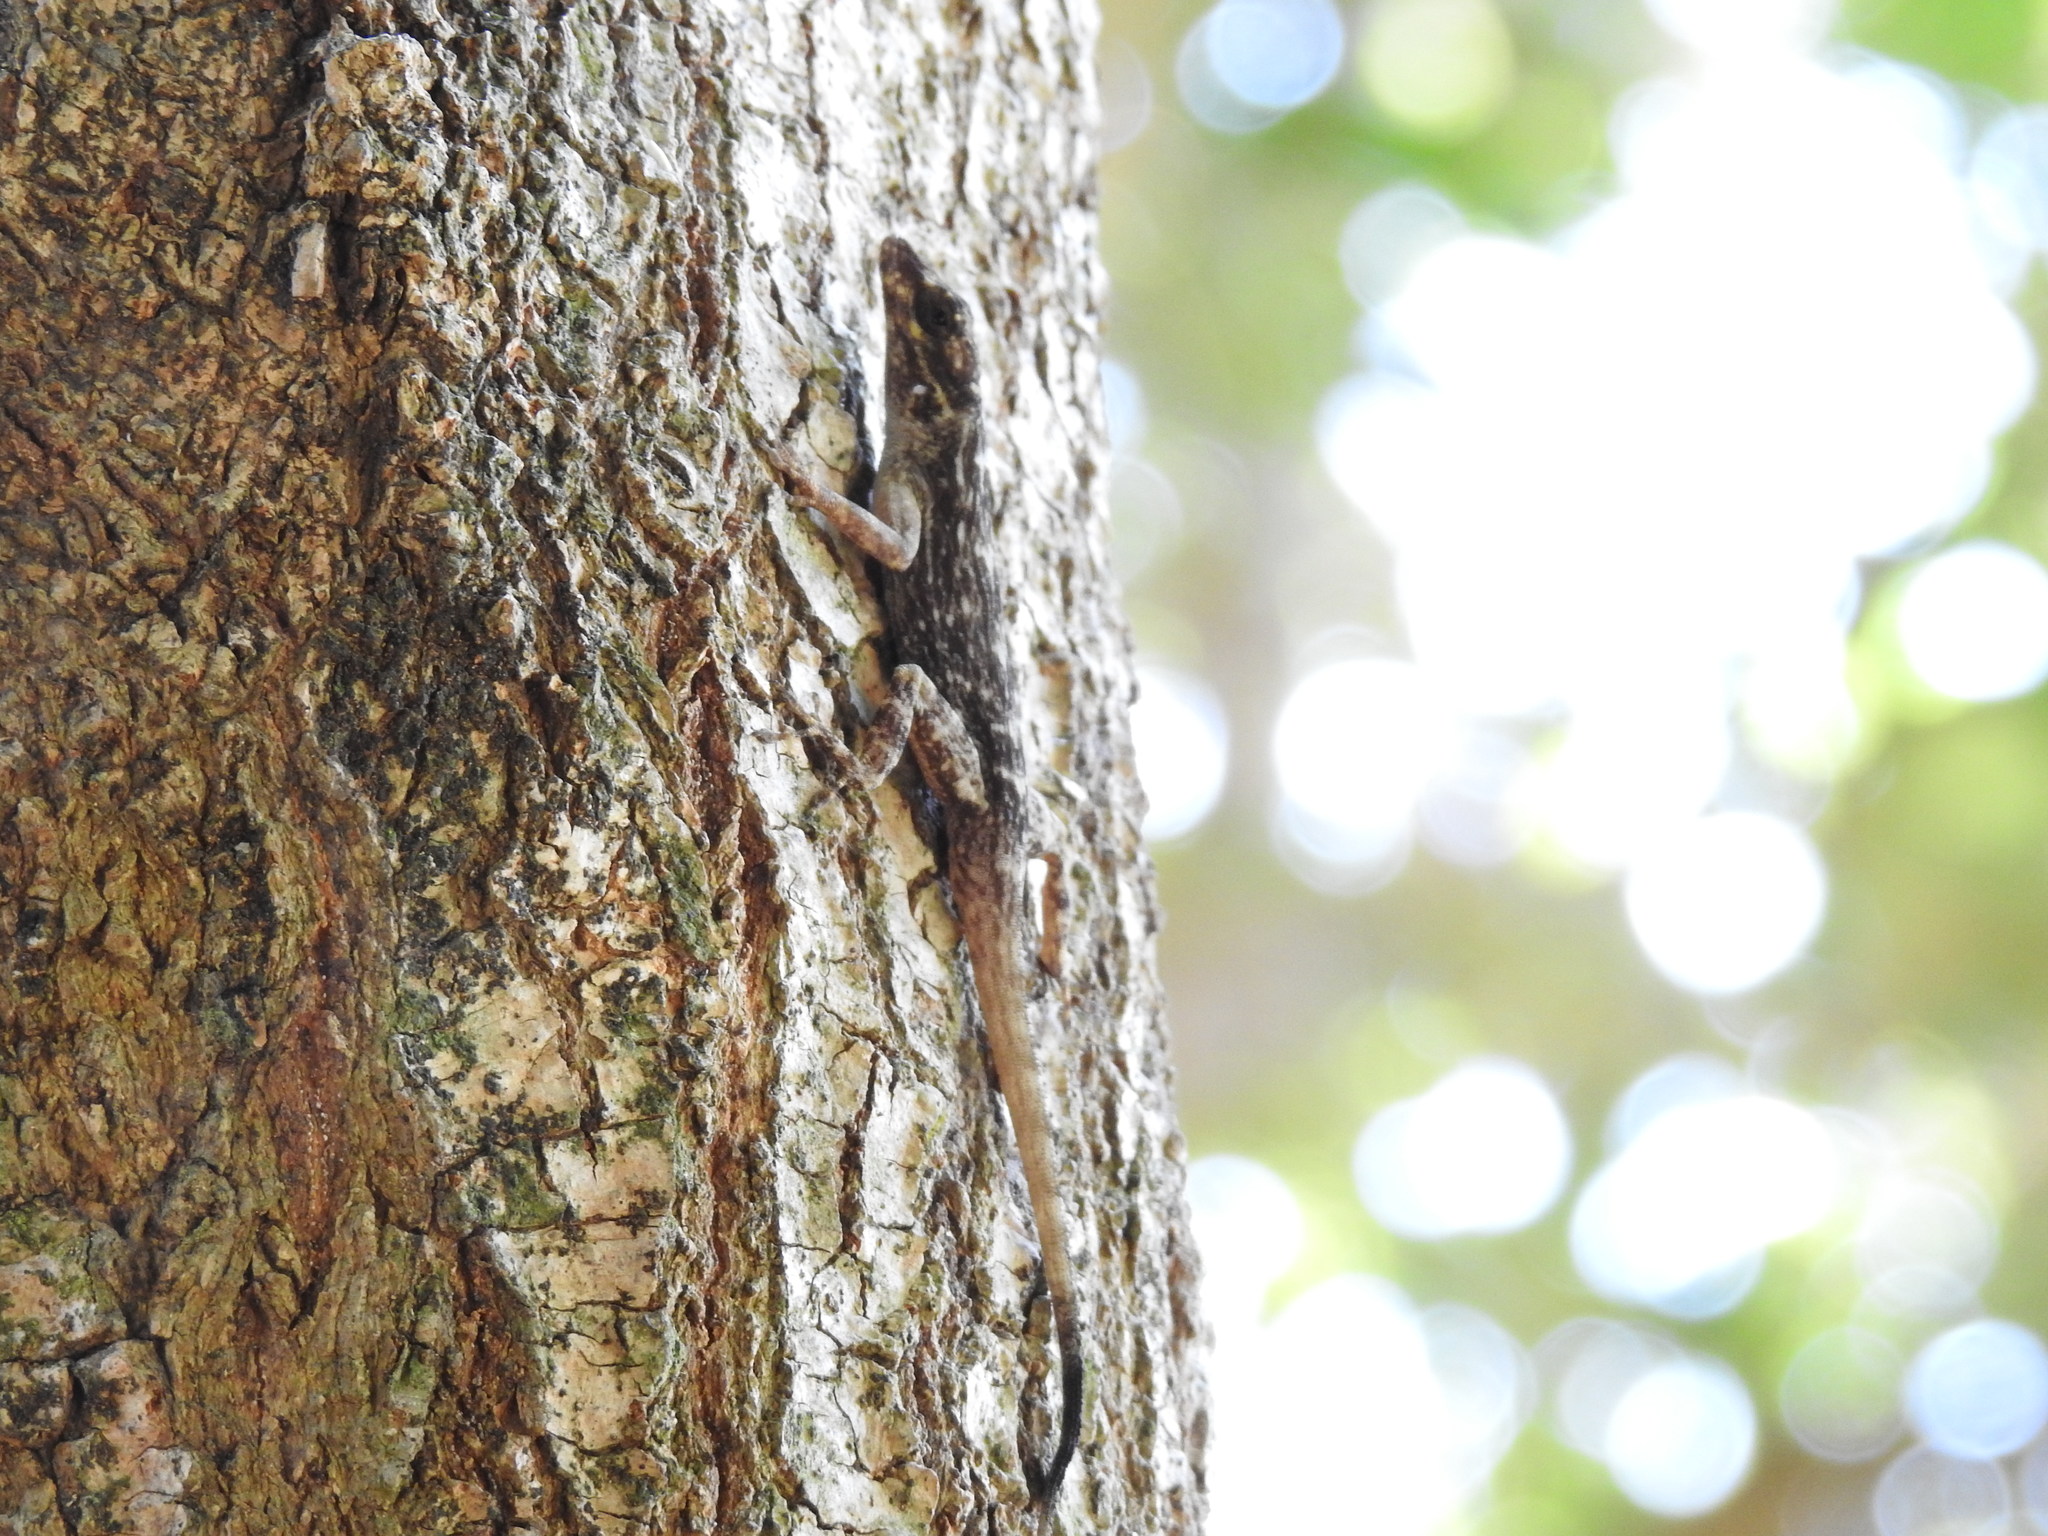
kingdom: Animalia
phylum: Chordata
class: Squamata
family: Dactyloidae
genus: Anolis
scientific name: Anolis distichus
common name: Bark anole
